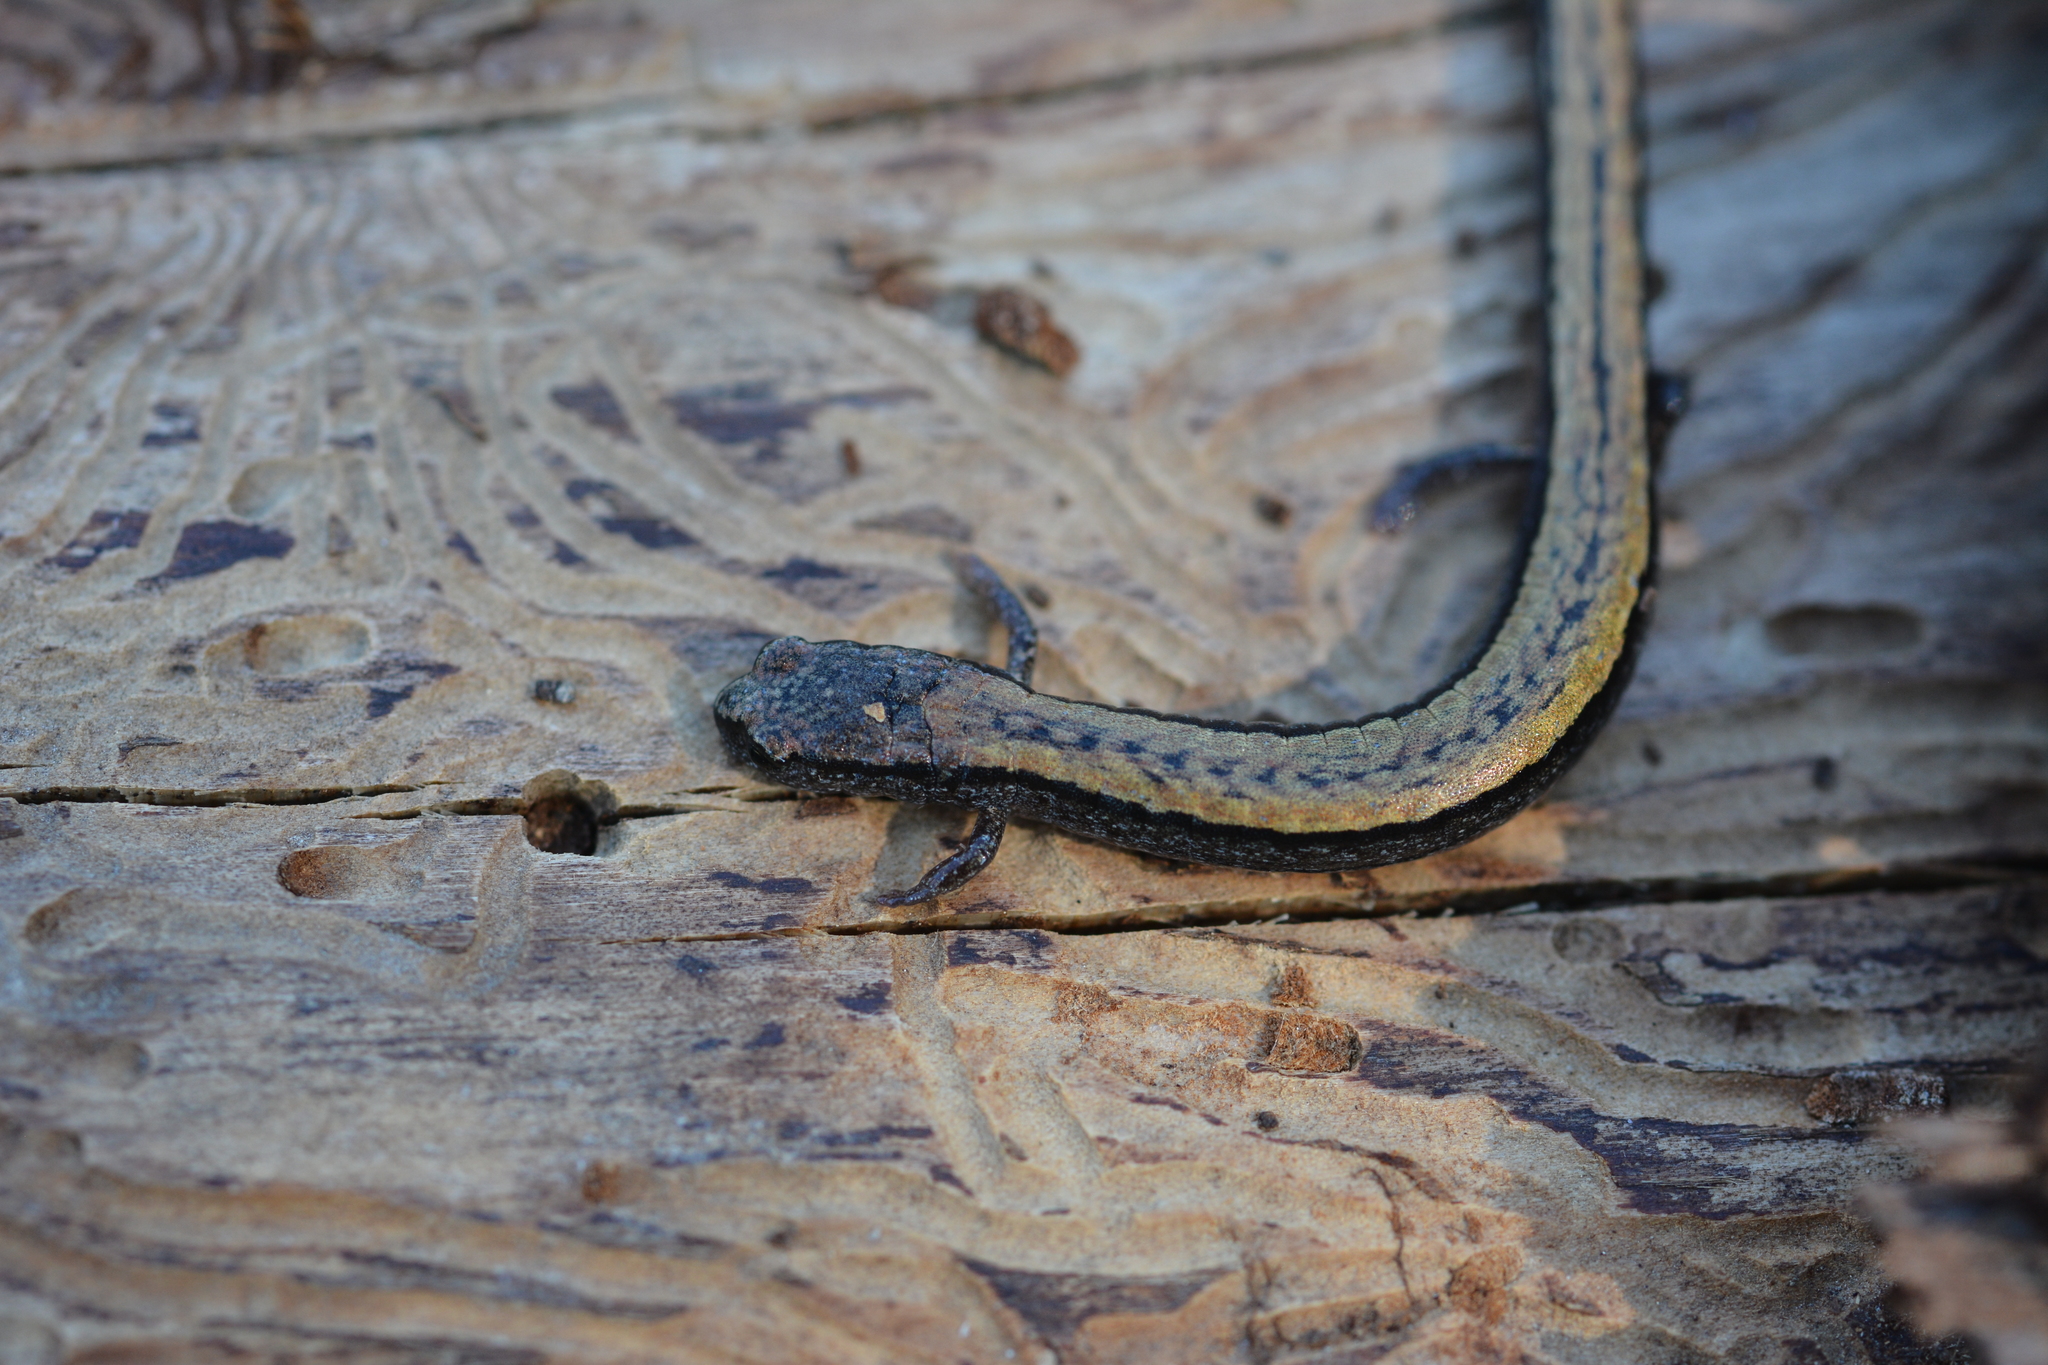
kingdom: Animalia
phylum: Chordata
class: Amphibia
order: Caudata
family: Plethodontidae
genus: Batrachoseps
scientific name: Batrachoseps attenuatus
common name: California slender salamander
